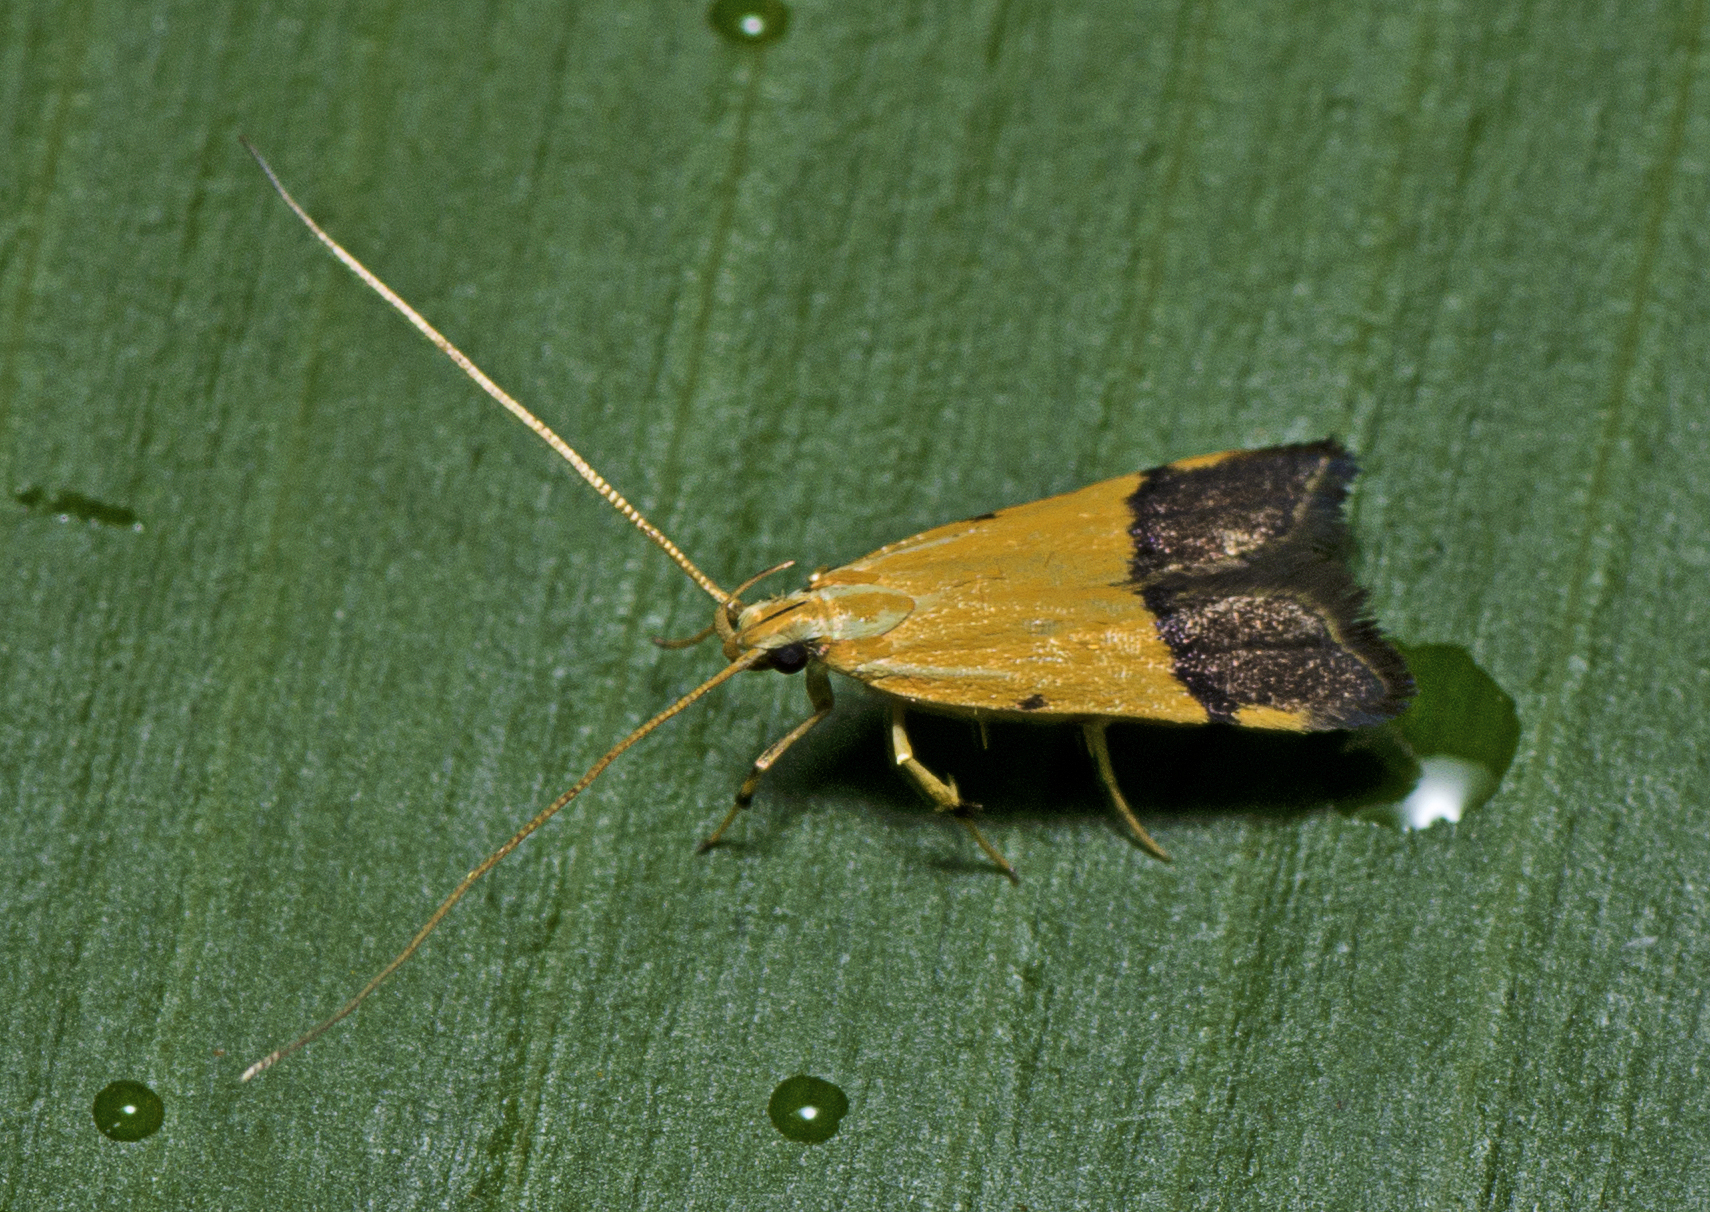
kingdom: Animalia
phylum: Arthropoda
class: Insecta
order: Lepidoptera
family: Lecithoceridae
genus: Crocanthes
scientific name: Crocanthes micradelpha
